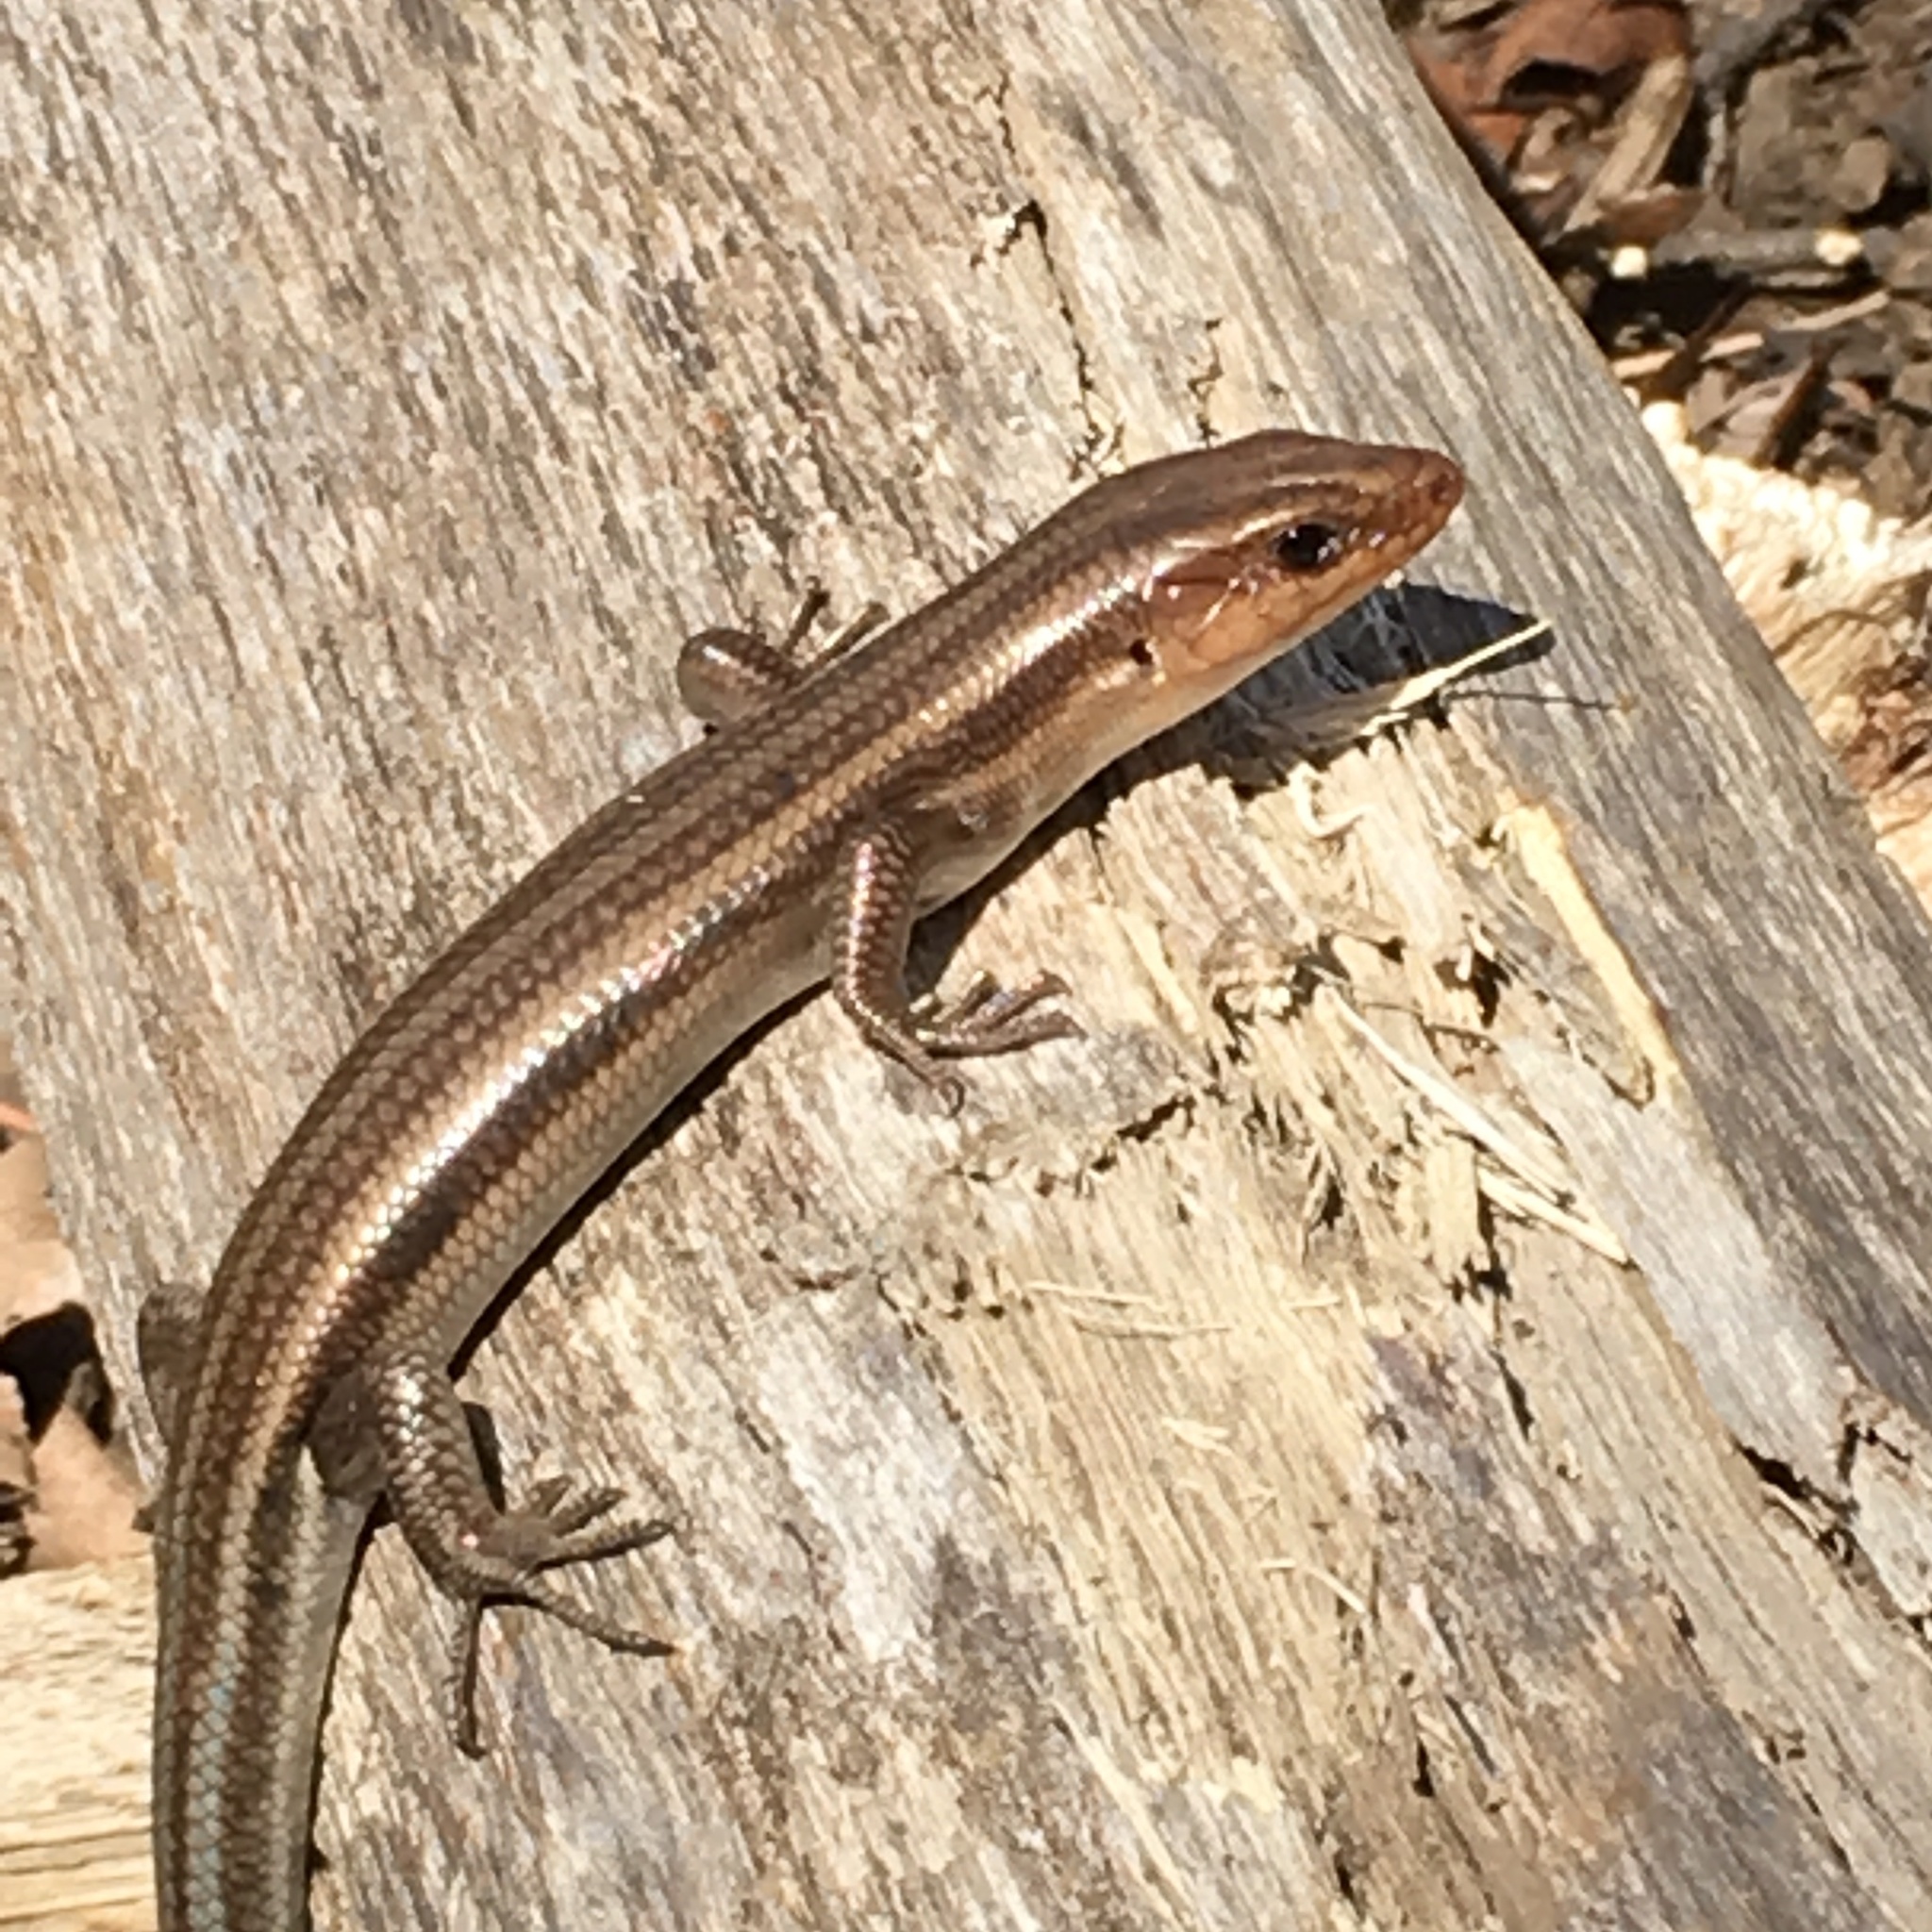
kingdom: Animalia
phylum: Chordata
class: Squamata
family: Scincidae
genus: Plestiodon
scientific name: Plestiodon fasciatus
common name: Five-lined skink
